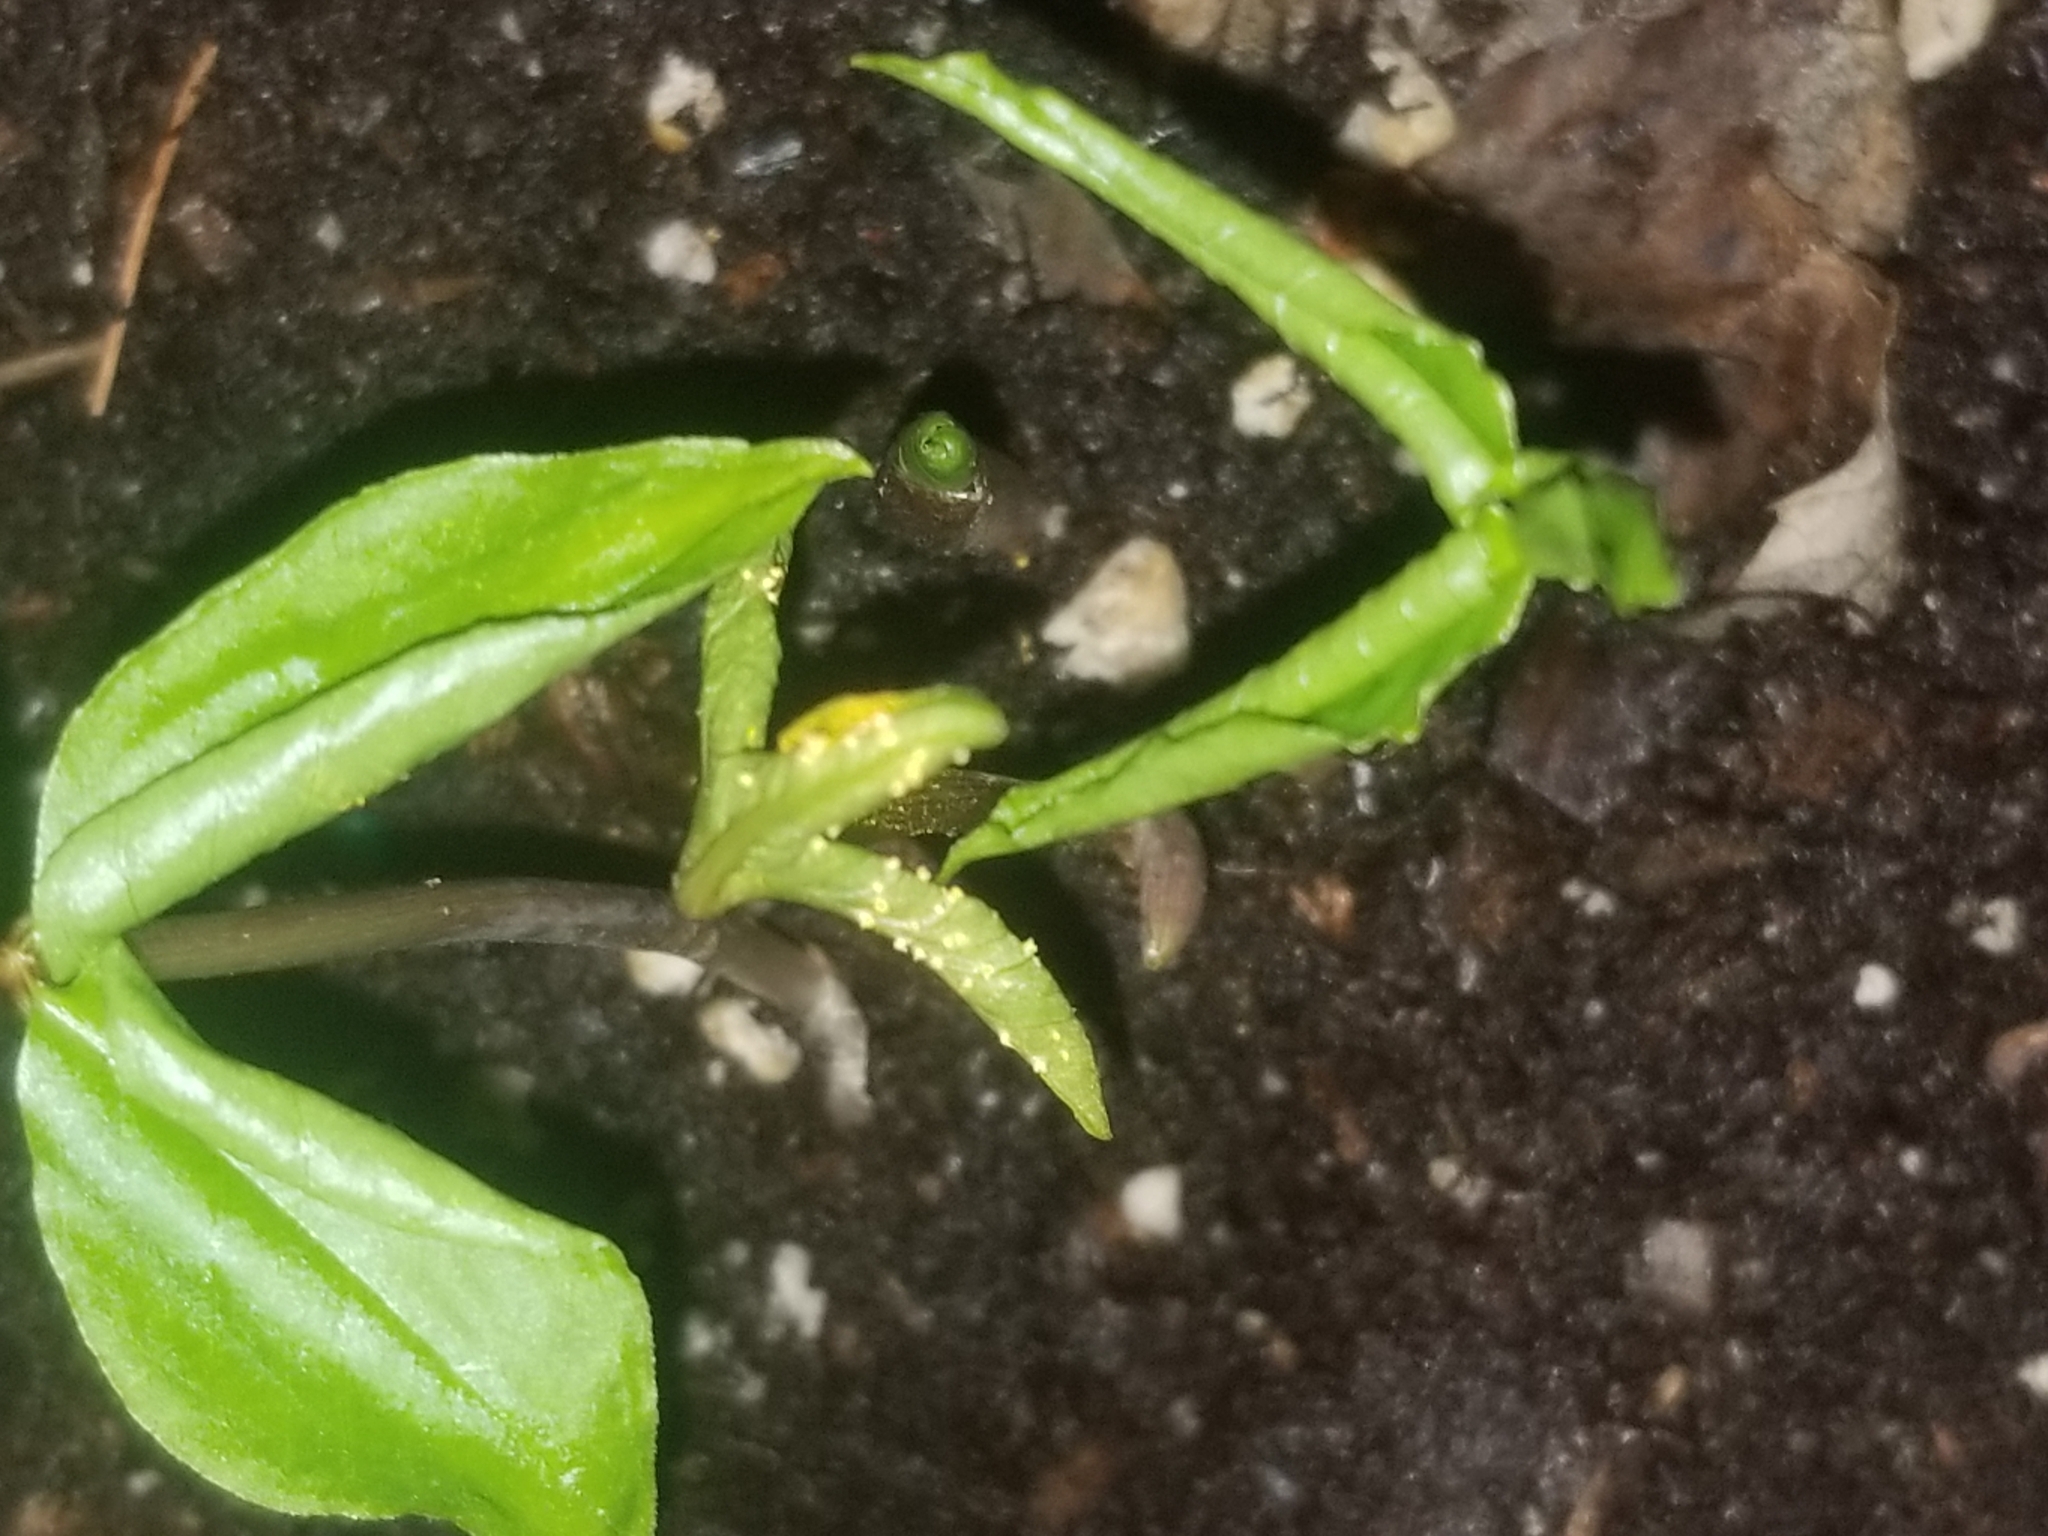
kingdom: Fungi
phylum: Basidiomycota
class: Pucciniomycetes
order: Pucciniales
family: Pucciniaceae
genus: Uromyces
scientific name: Uromyces ari-triphylli
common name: Jack-in-the-pulpit rust
